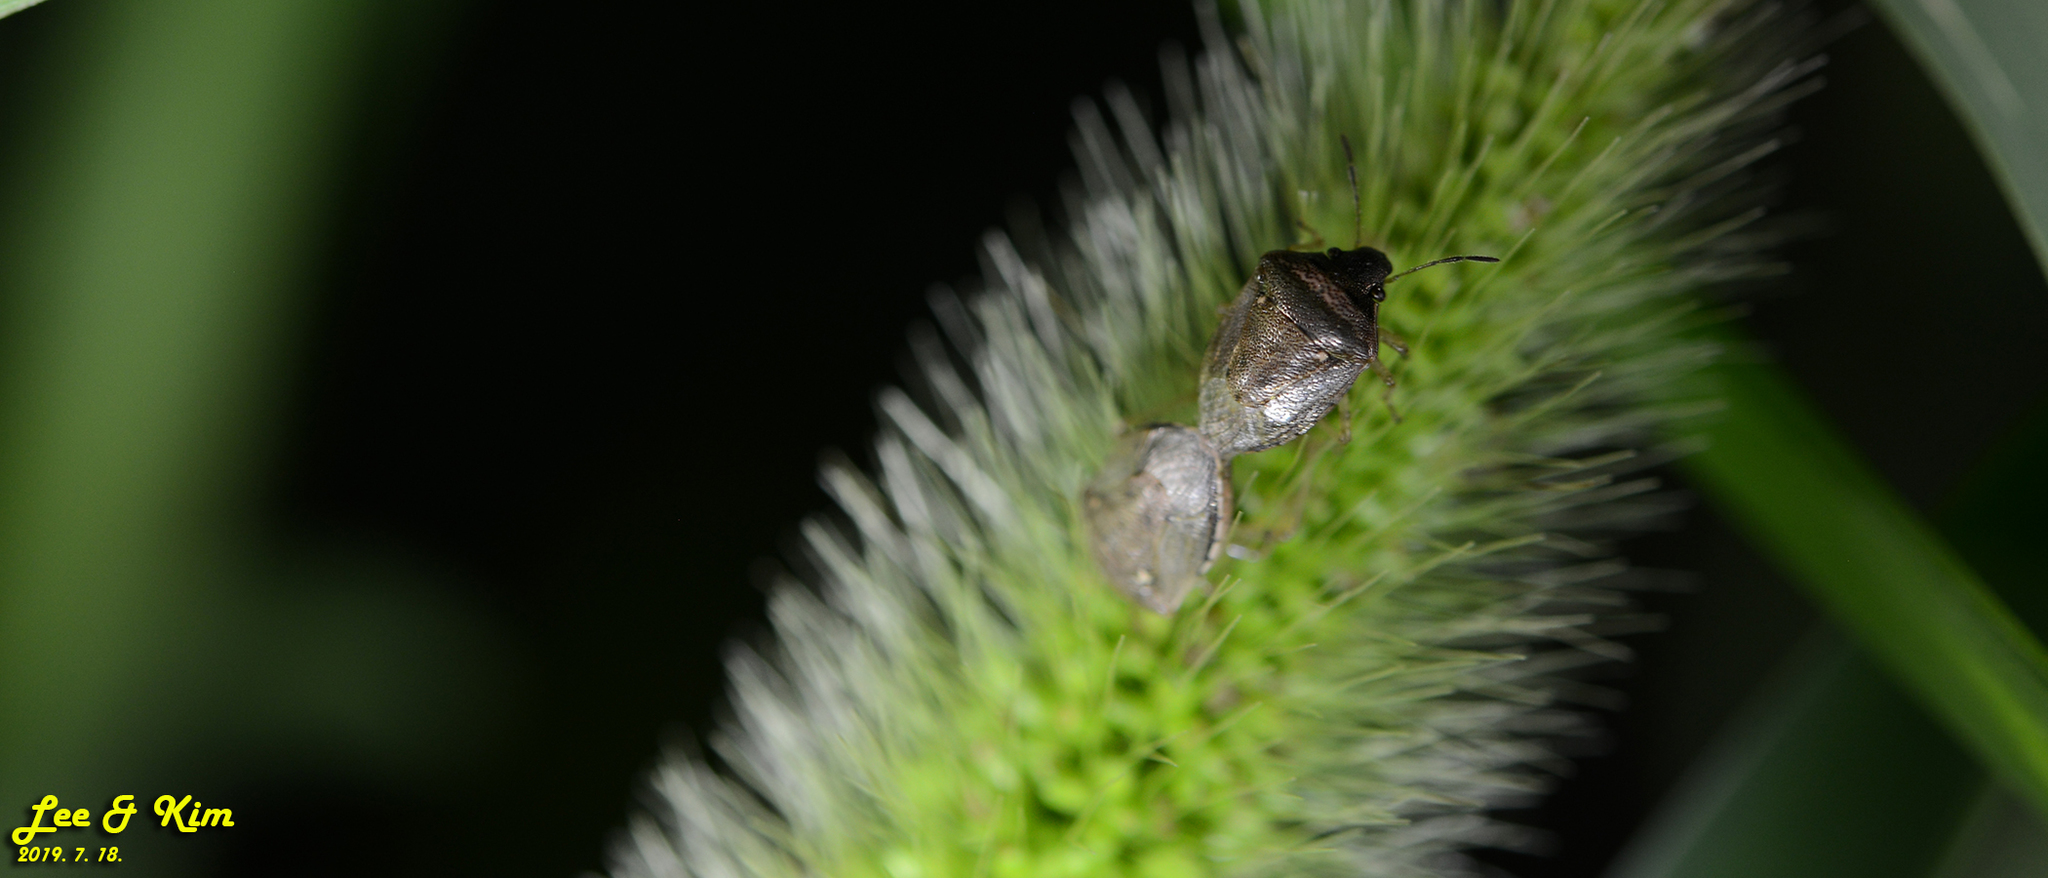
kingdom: Animalia
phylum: Arthropoda
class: Insecta
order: Hemiptera
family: Pentatomidae
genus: Eysarcoris
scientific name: Eysarcoris ventralis
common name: White-spotted stink bug
